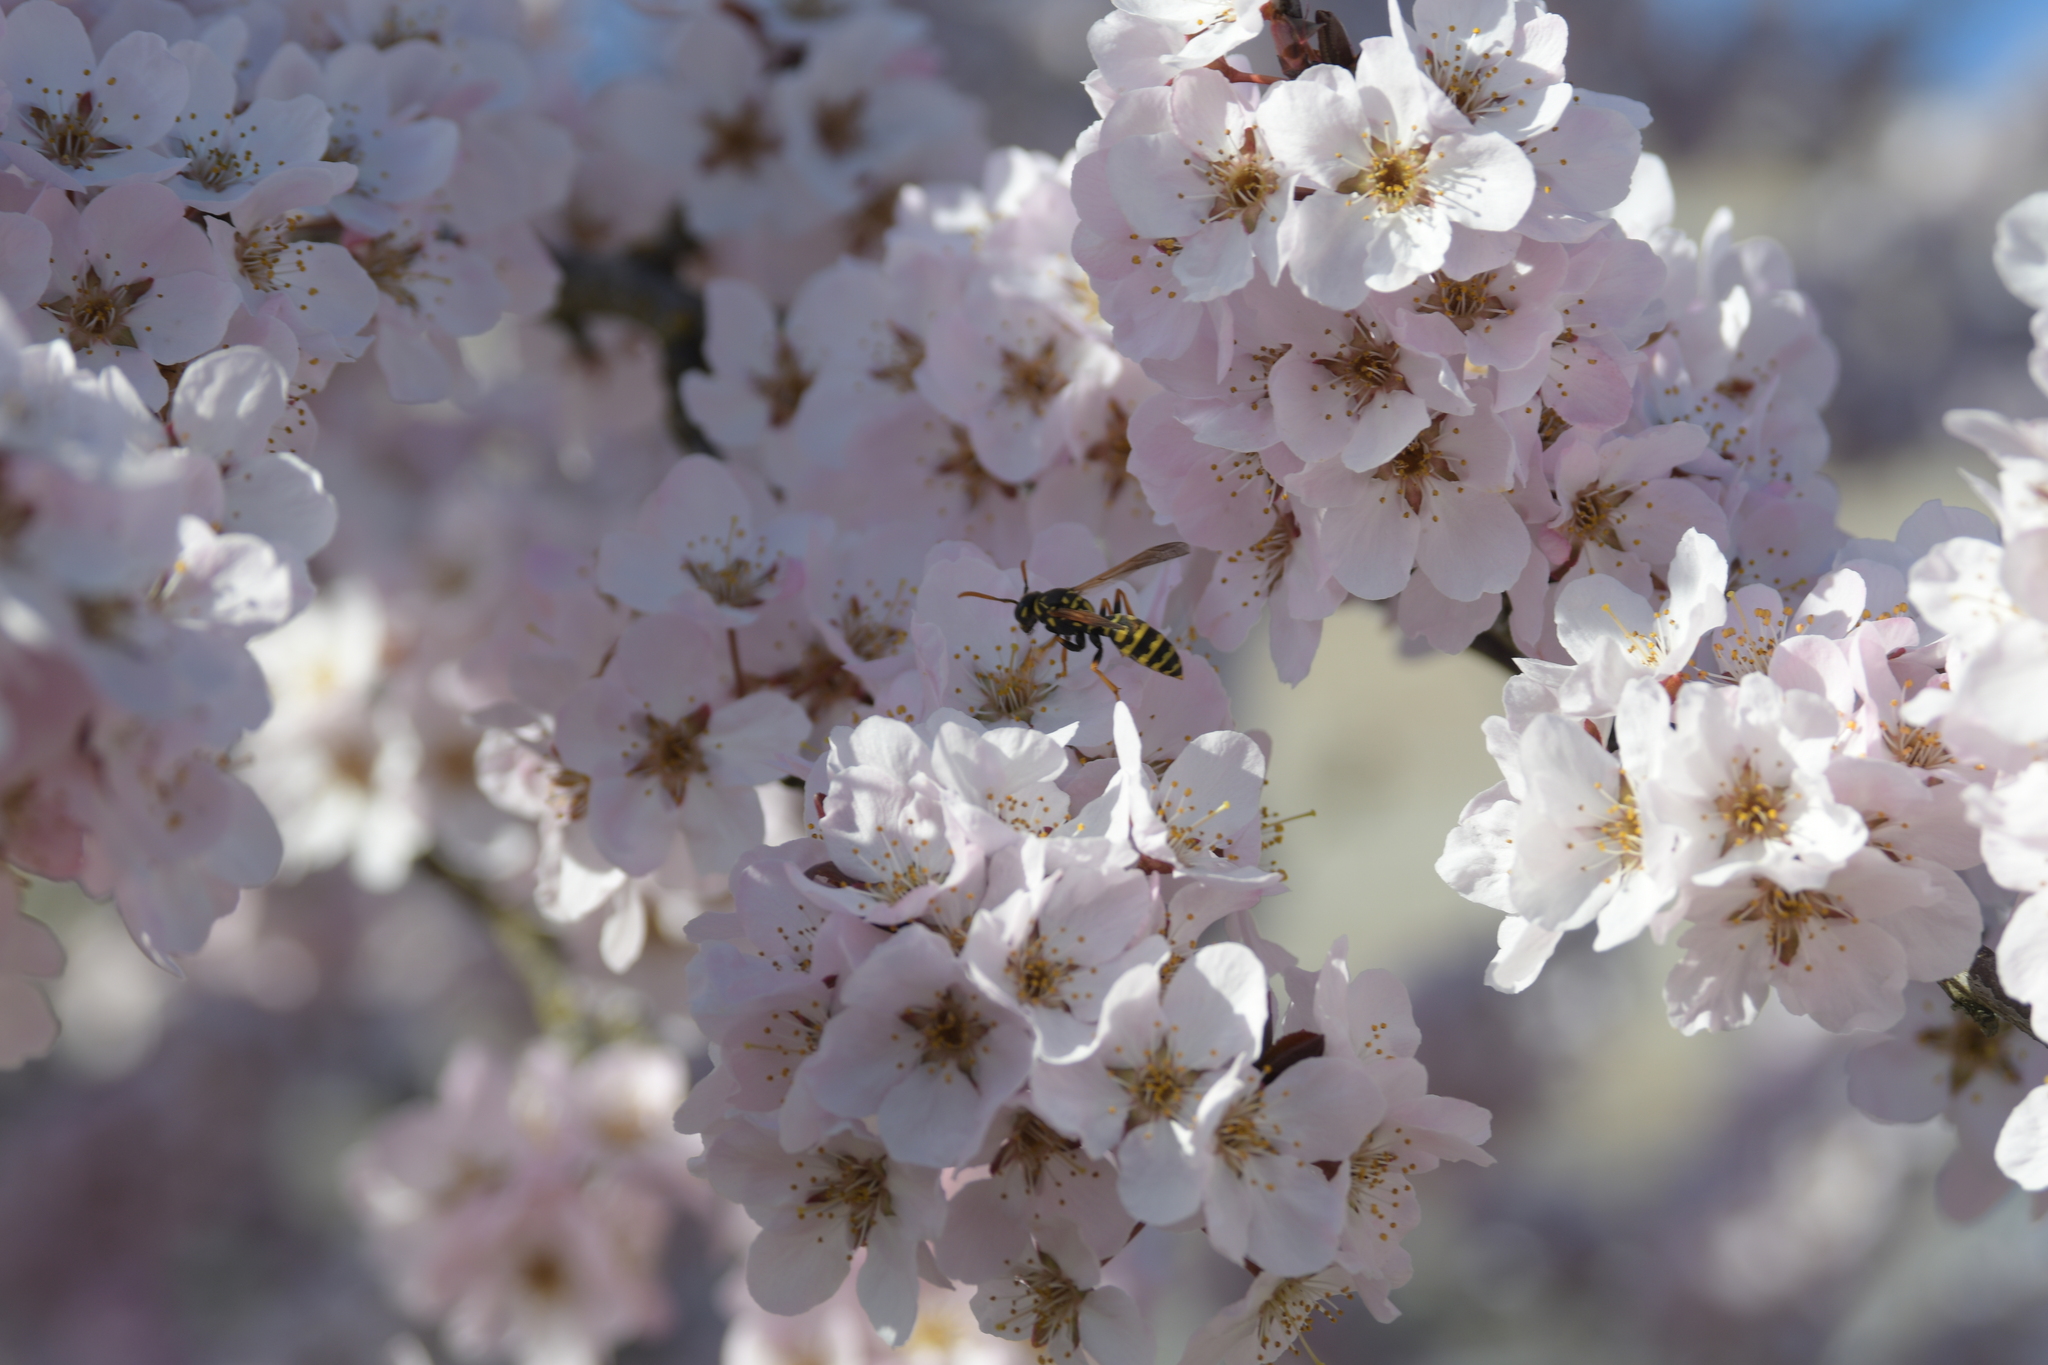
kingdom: Animalia
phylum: Arthropoda
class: Insecta
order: Hymenoptera
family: Eumenidae
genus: Polistes
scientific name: Polistes dominula
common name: Paper wasp
